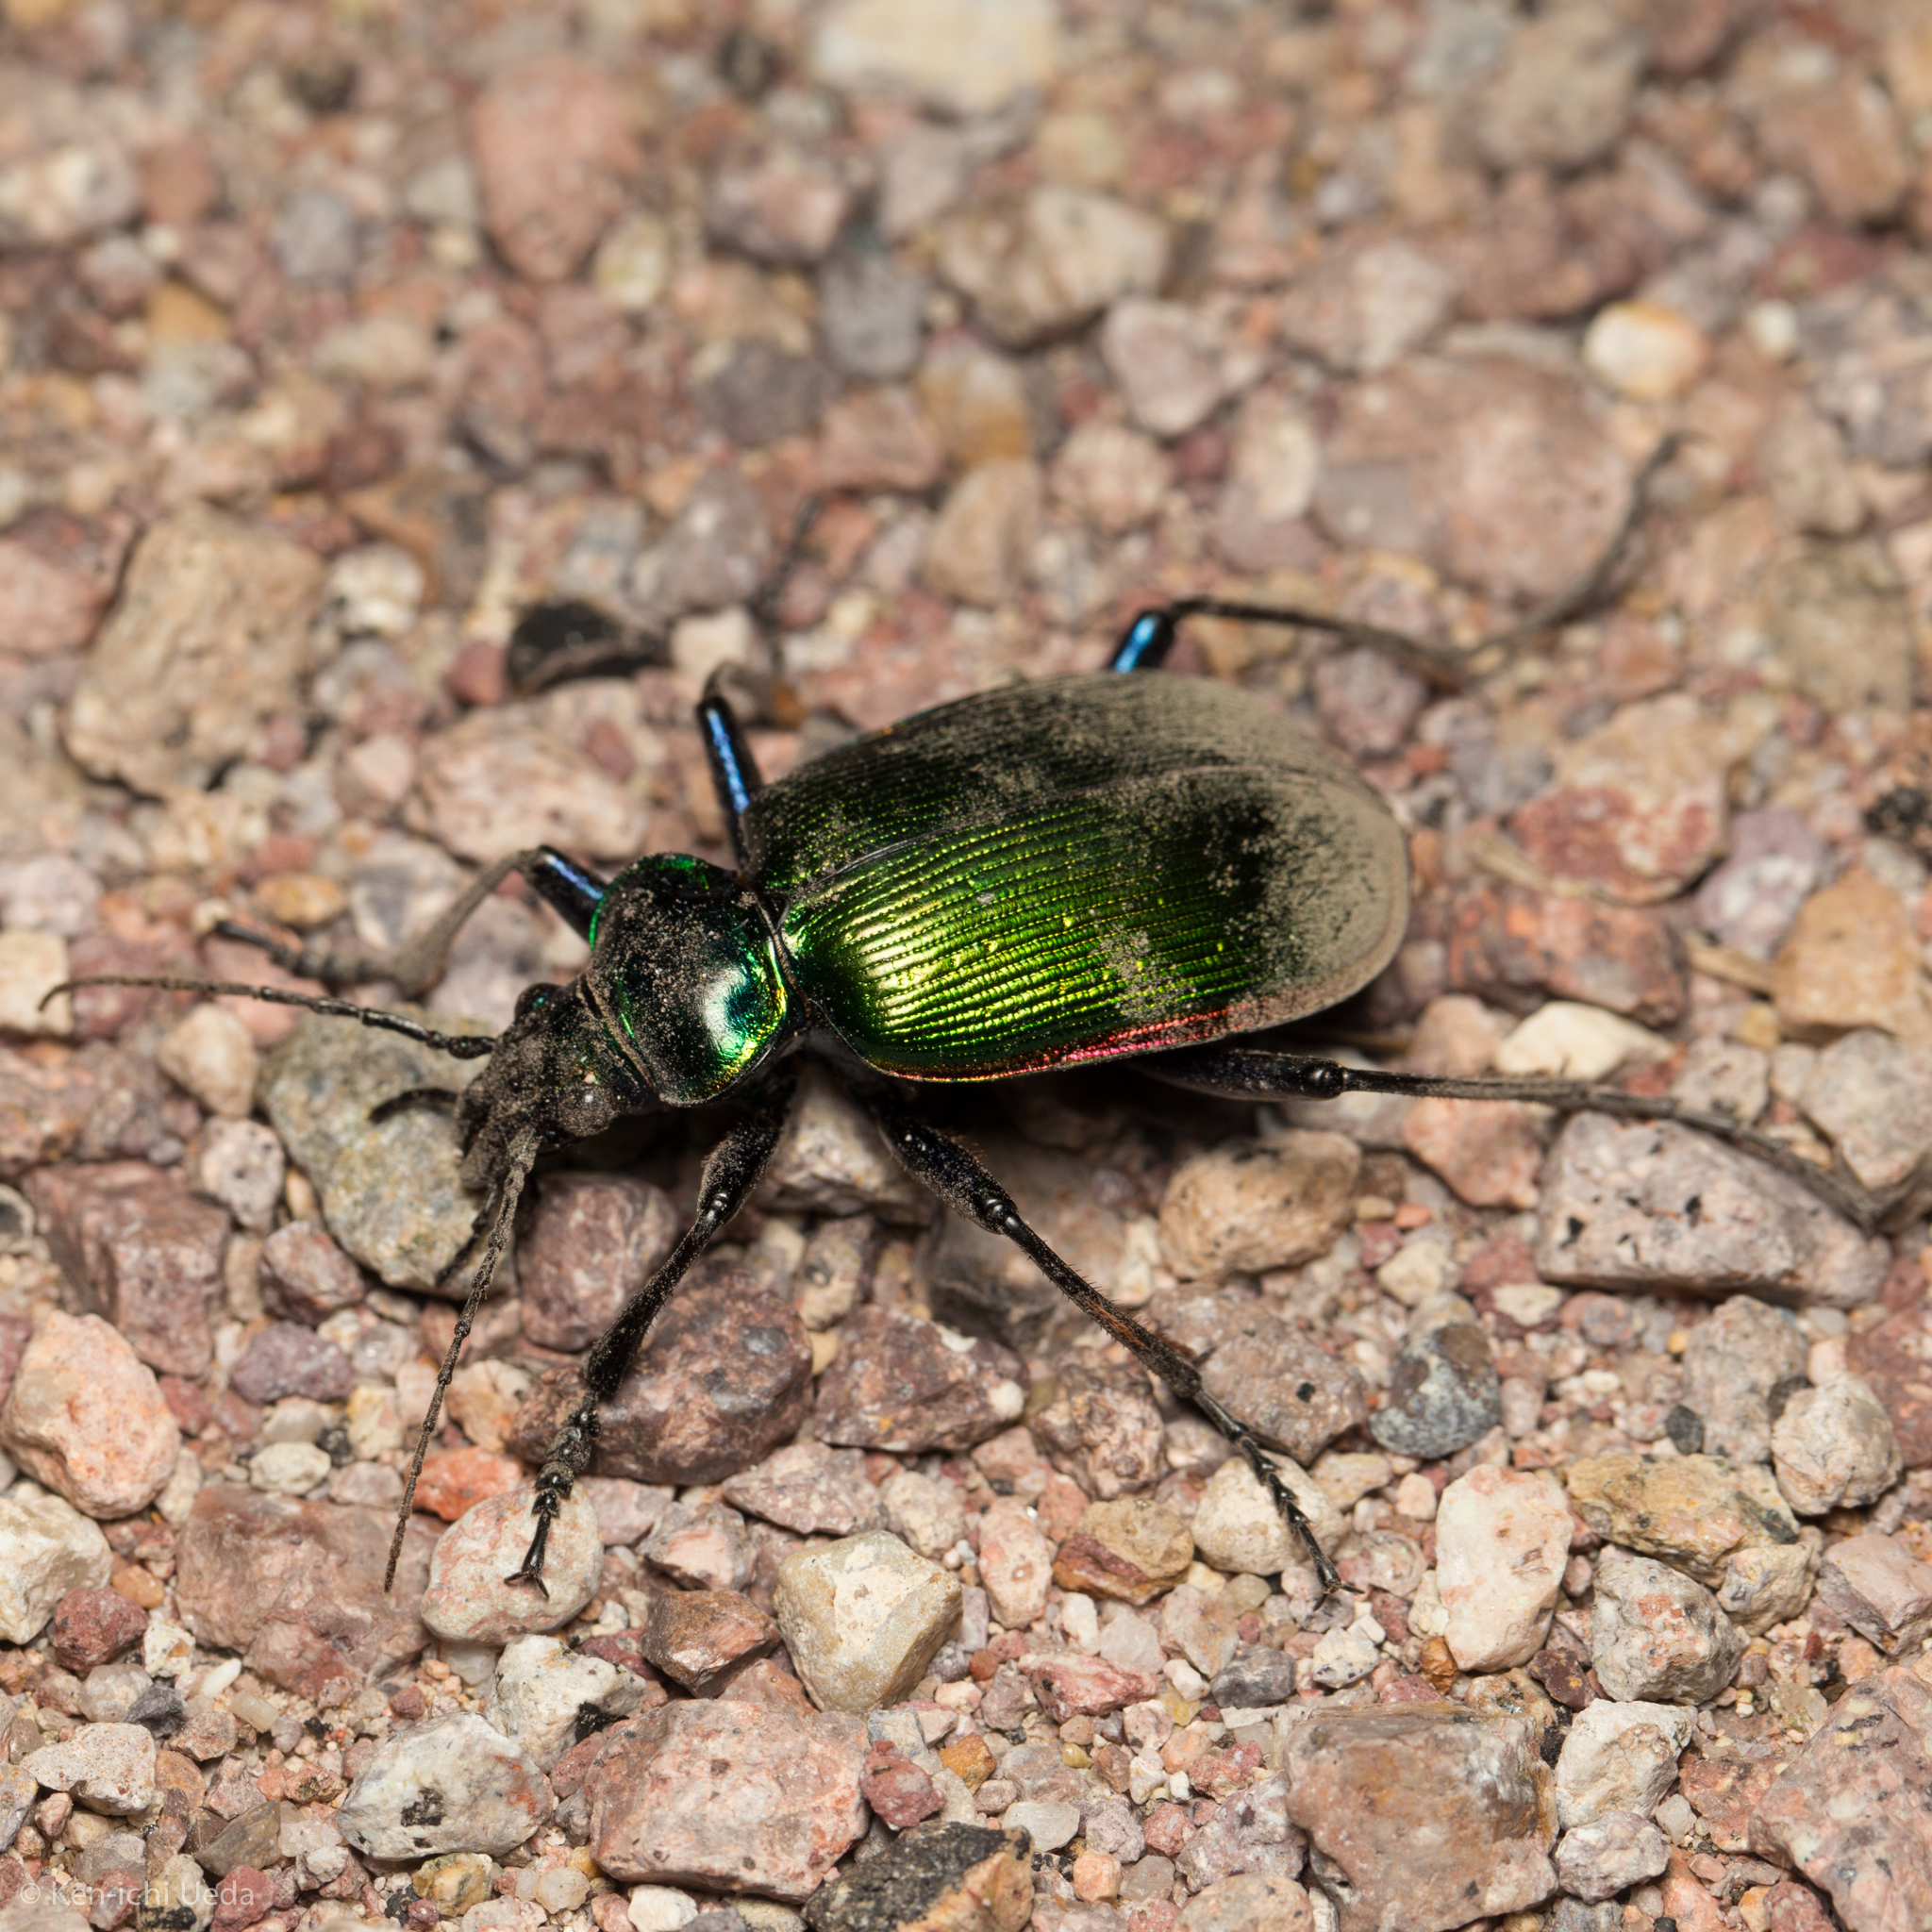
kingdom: Animalia
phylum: Arthropoda
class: Insecta
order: Coleoptera
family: Carabidae
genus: Calosoma
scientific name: Calosoma scrutator
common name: Fiery searcher beetle
